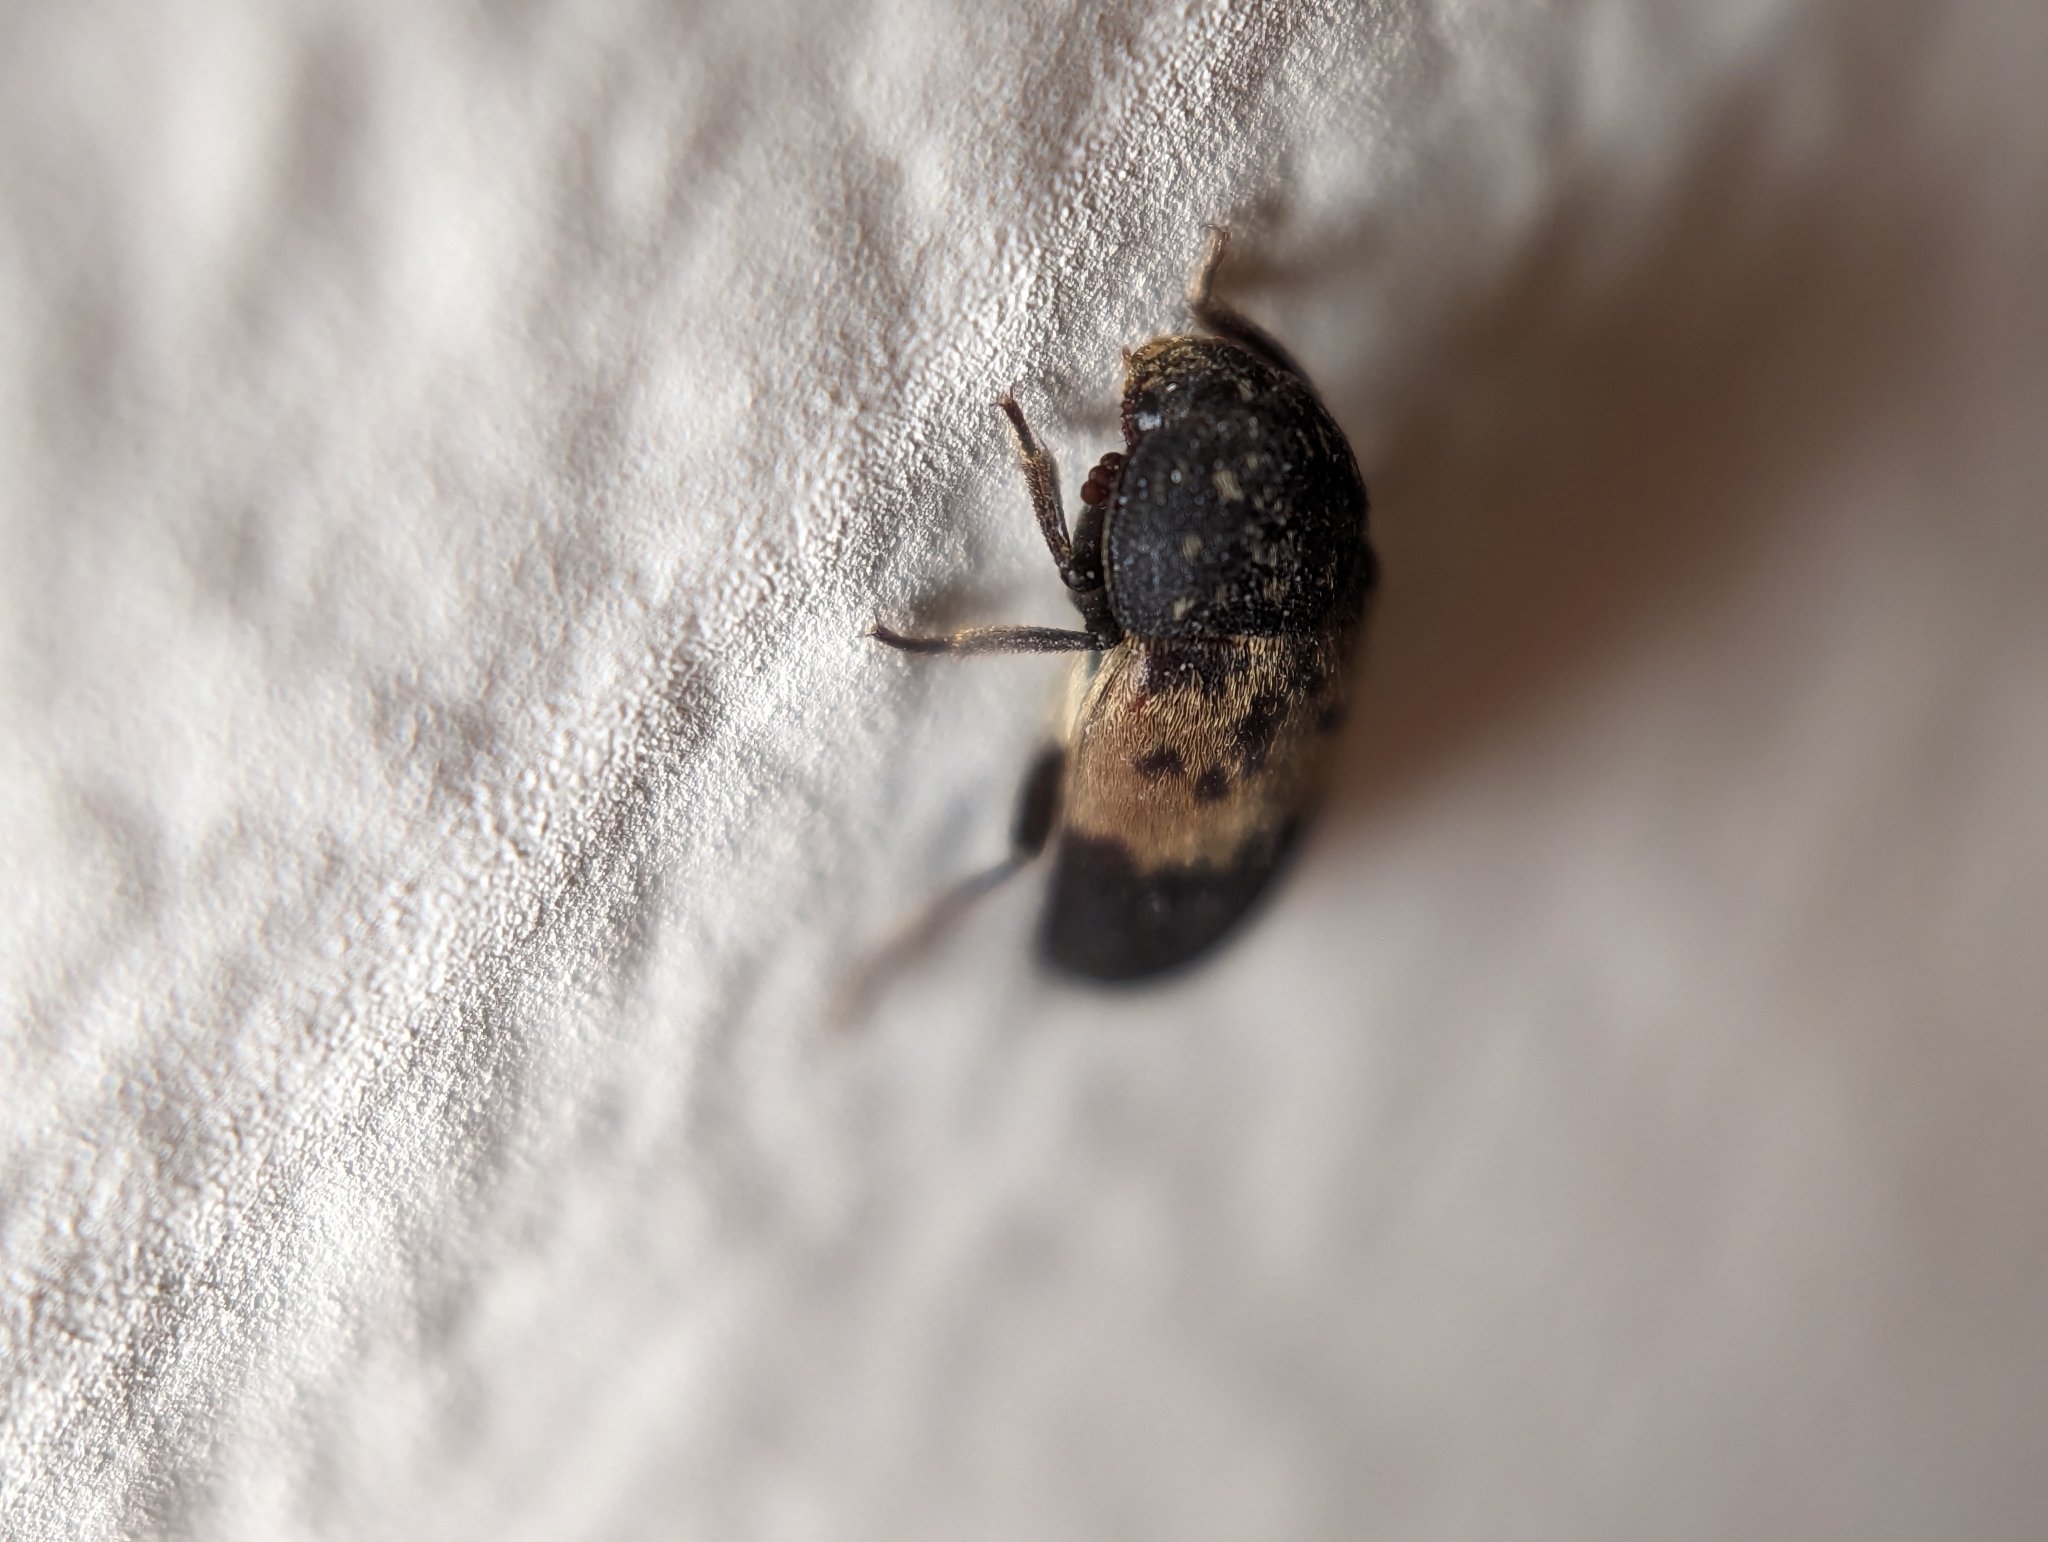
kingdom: Animalia
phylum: Arthropoda
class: Insecta
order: Coleoptera
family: Dermestidae
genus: Dermestes
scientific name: Dermestes lardarius
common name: Larder beetle
